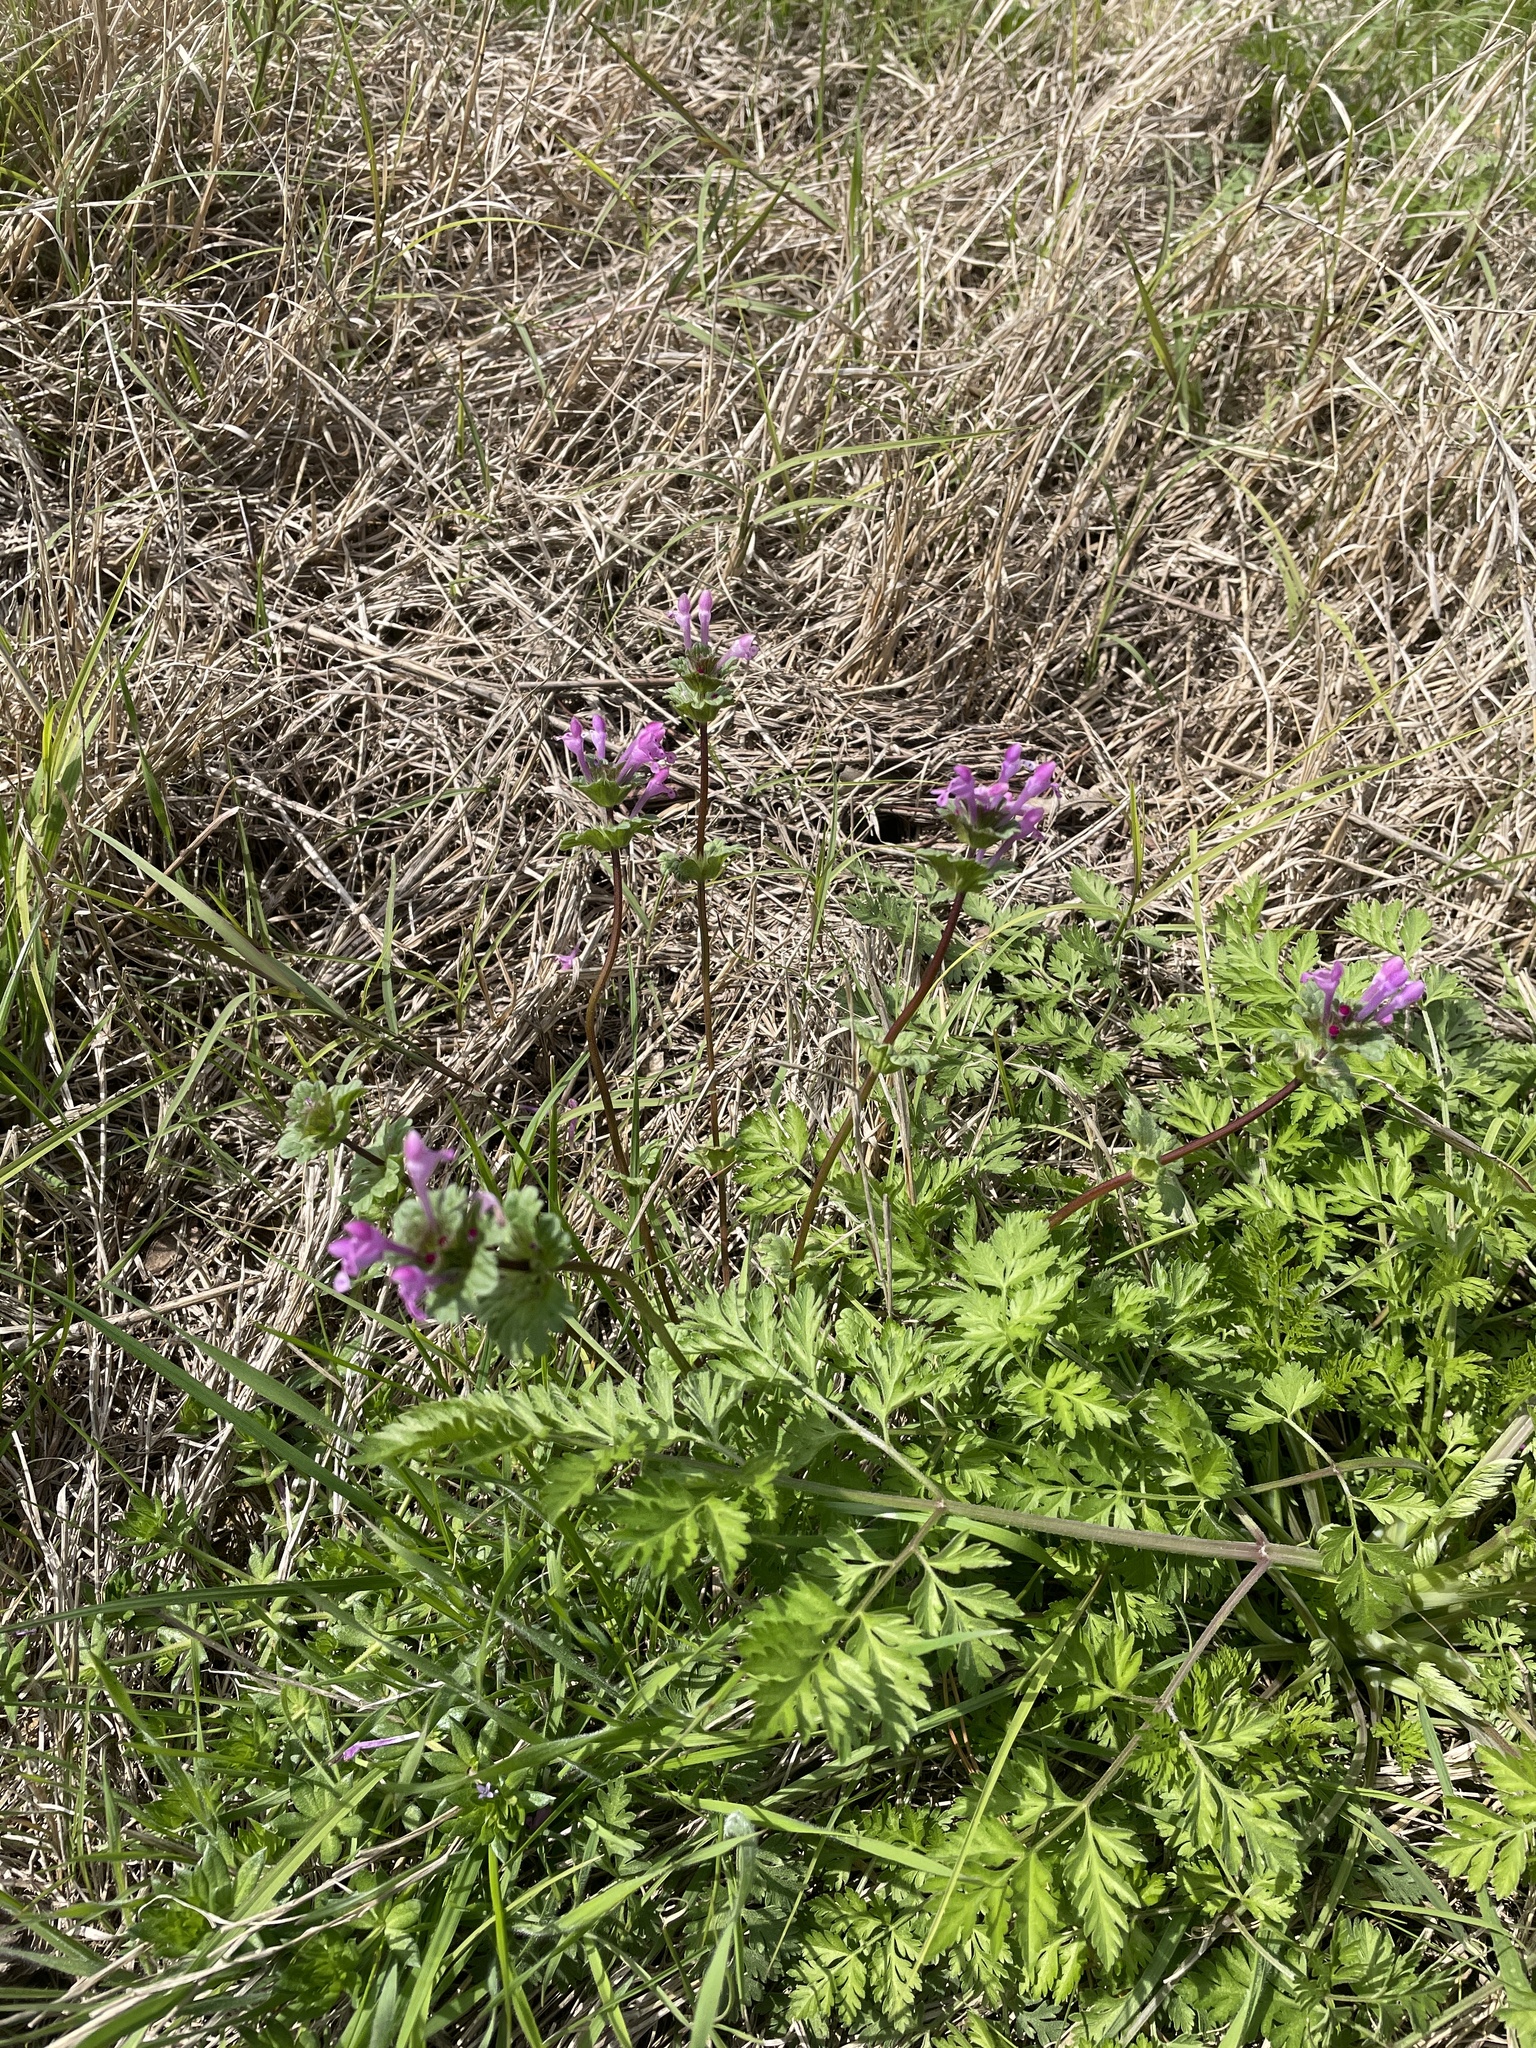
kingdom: Plantae
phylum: Tracheophyta
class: Magnoliopsida
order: Lamiales
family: Lamiaceae
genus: Lamium
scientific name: Lamium amplexicaule
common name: Henbit dead-nettle
